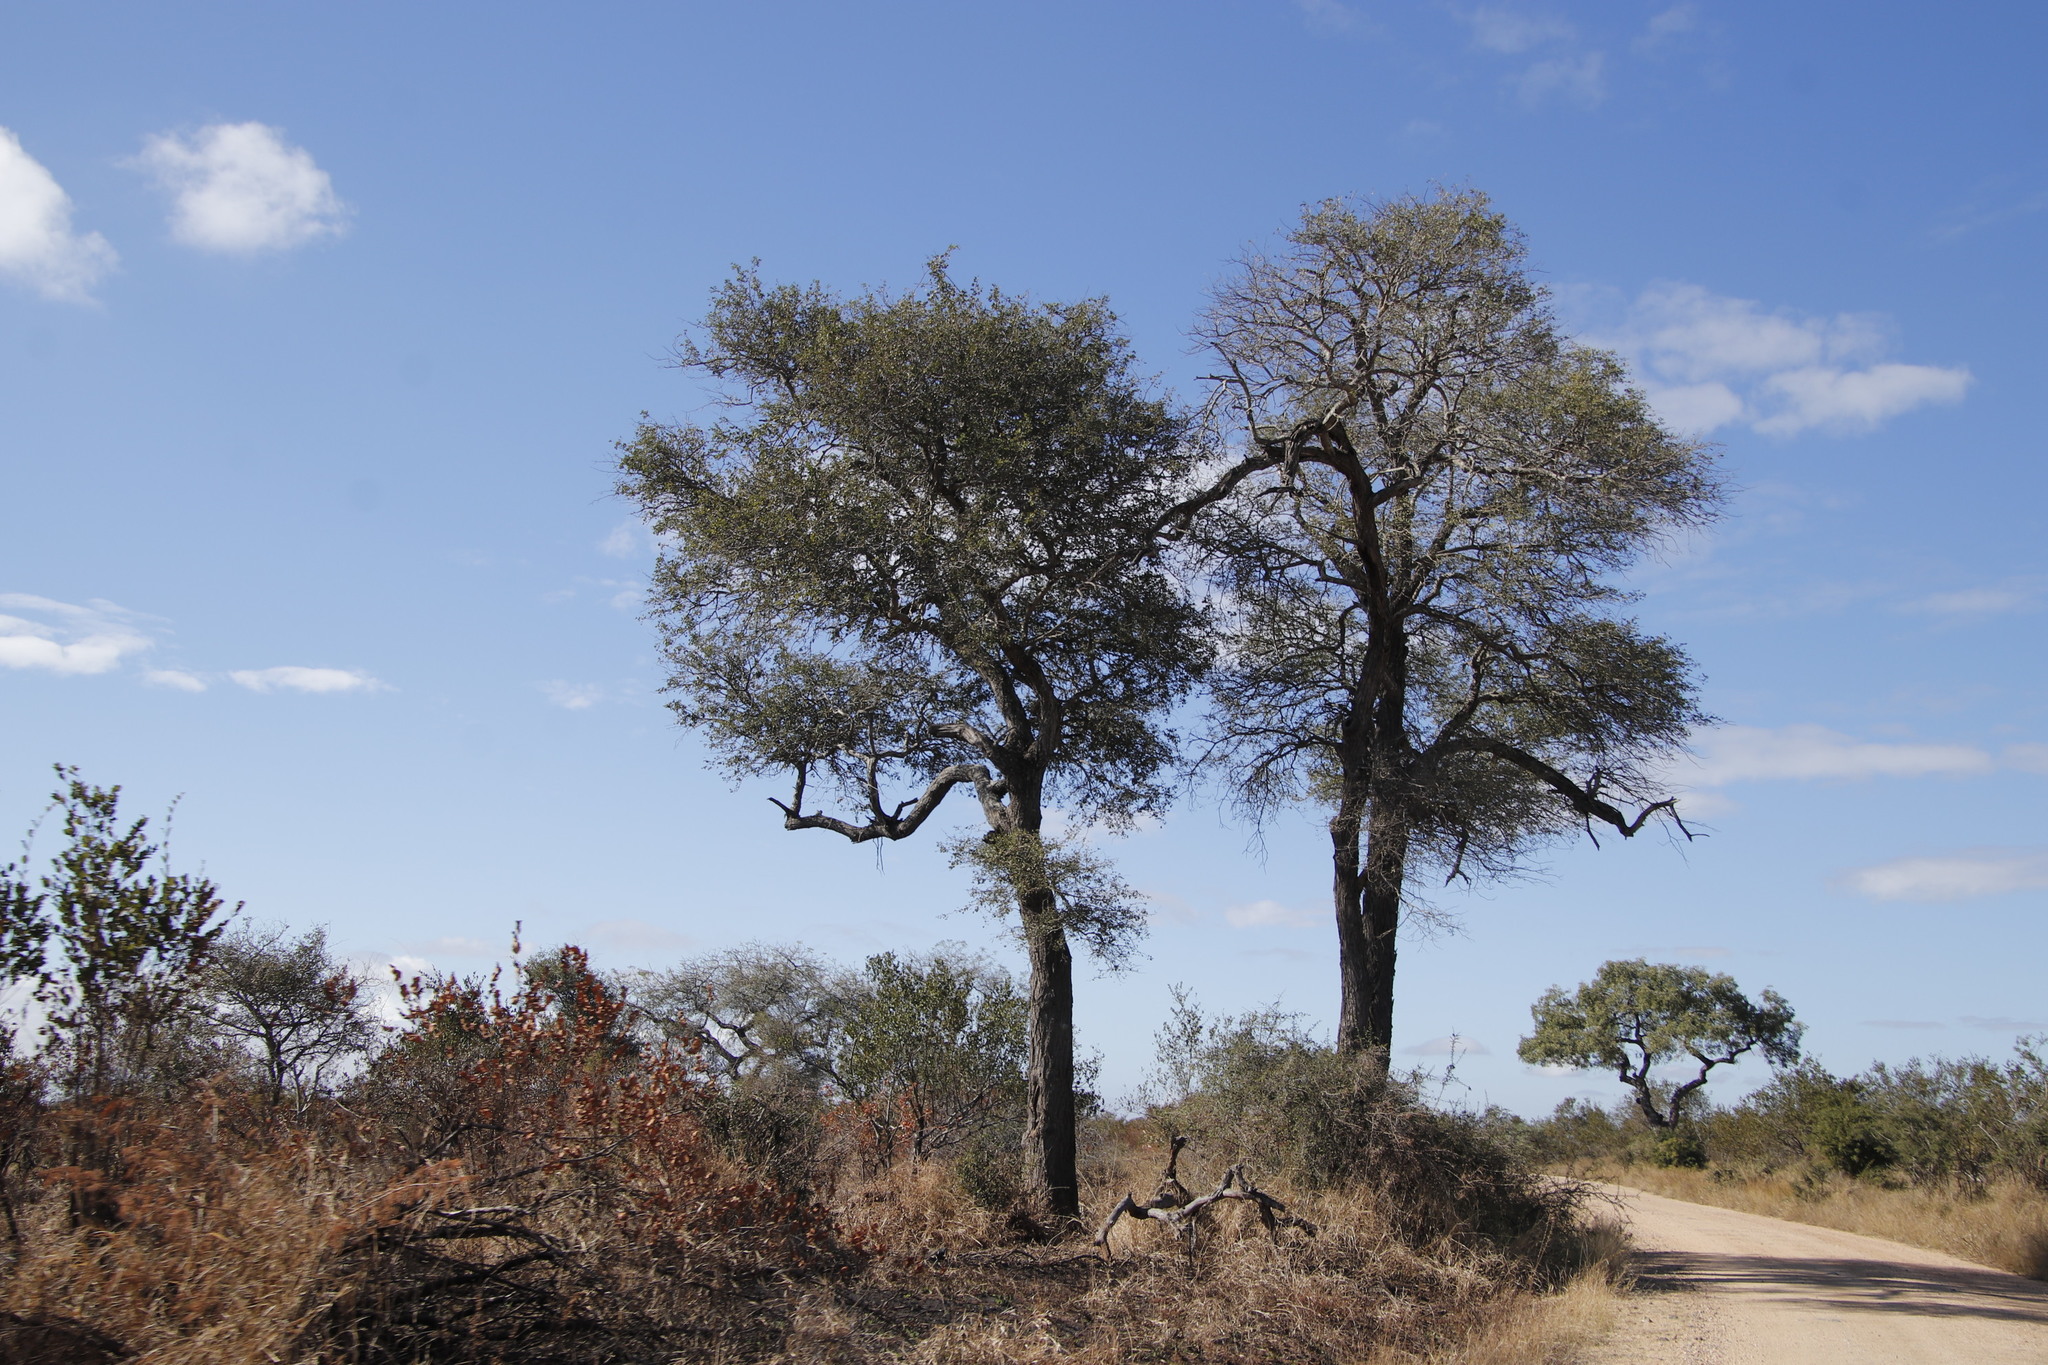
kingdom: Plantae
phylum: Tracheophyta
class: Magnoliopsida
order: Fabales
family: Fabaceae
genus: Senegalia
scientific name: Senegalia nigrescens
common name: Knobthorn
